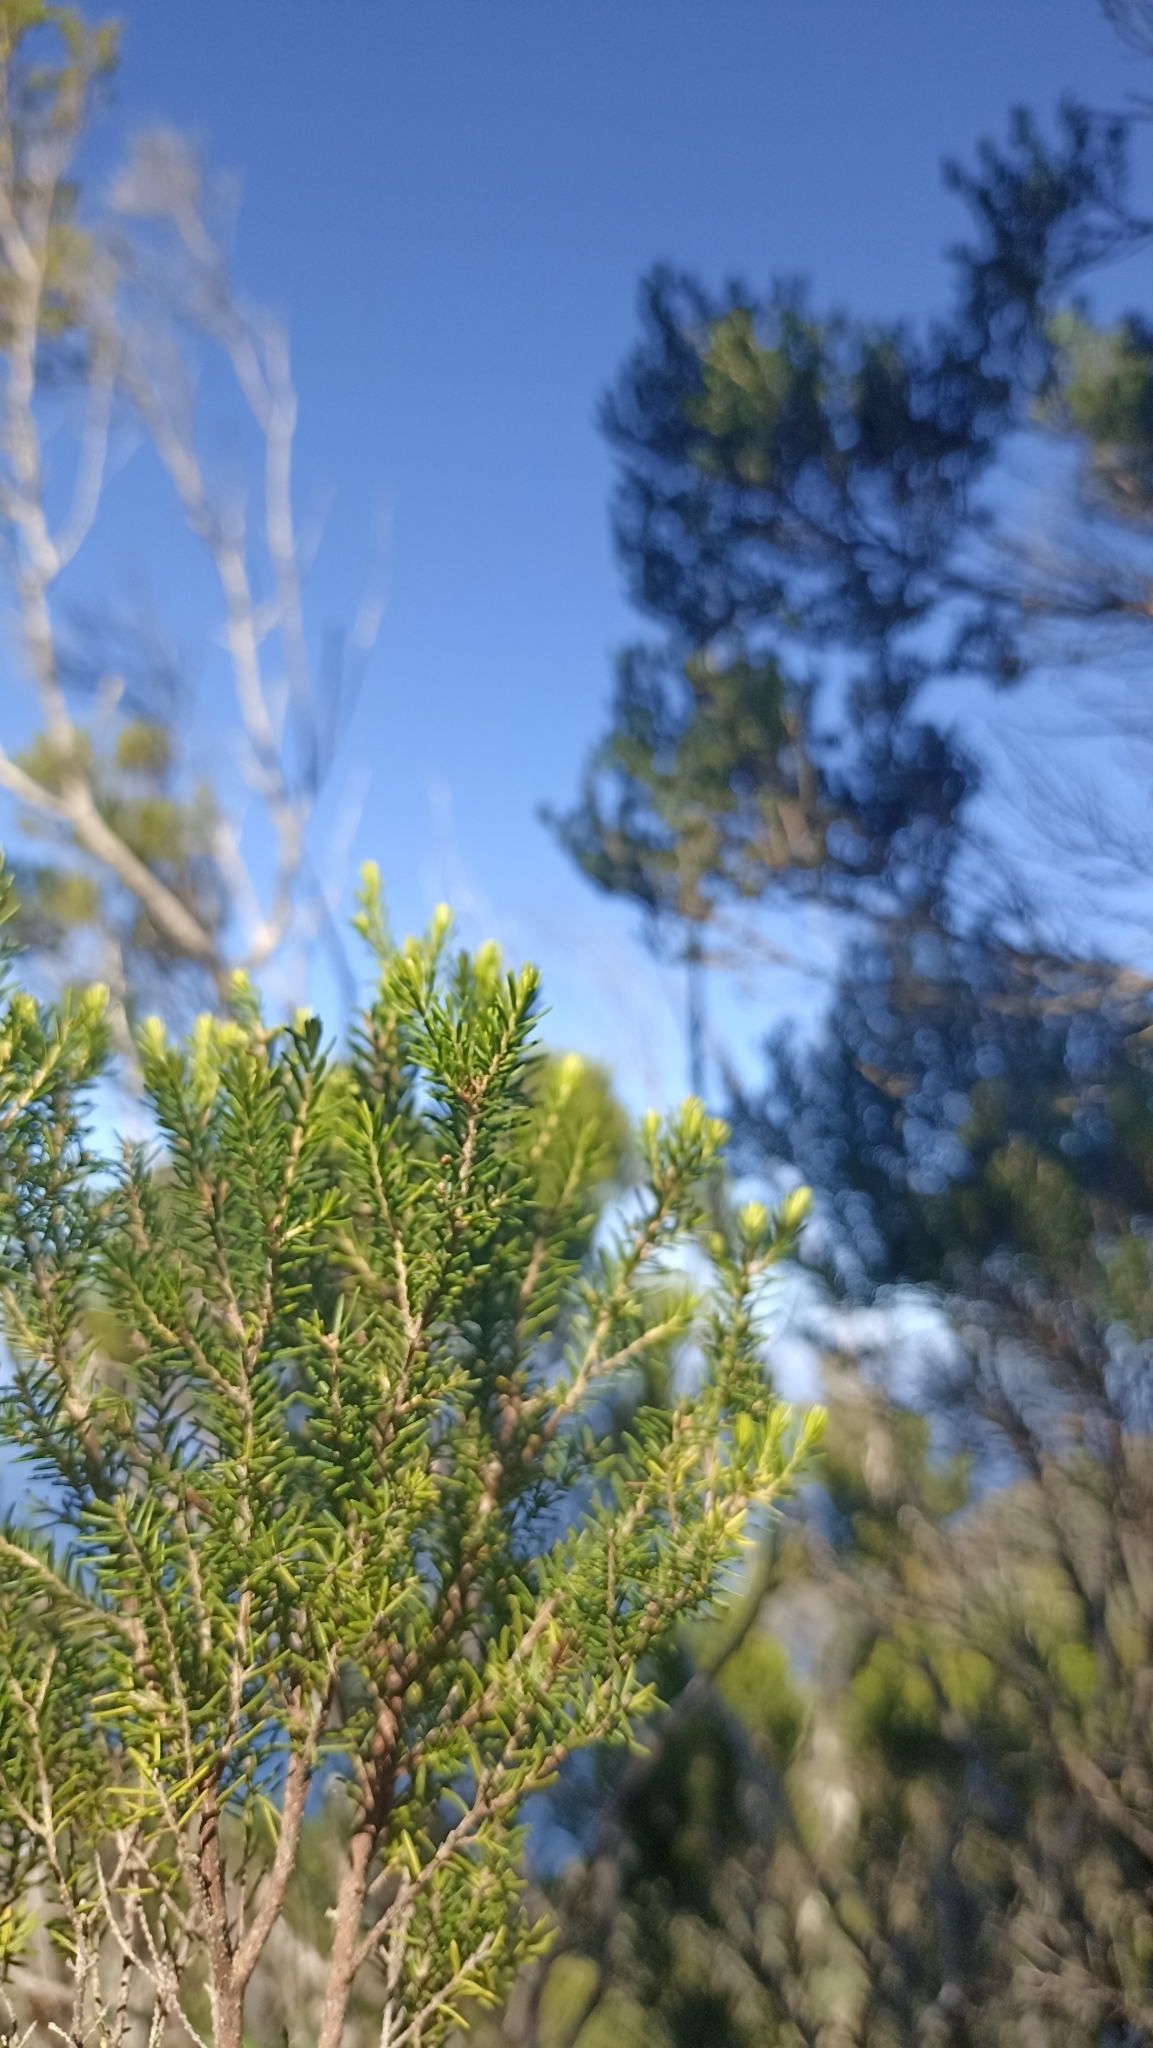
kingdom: Plantae
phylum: Tracheophyta
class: Magnoliopsida
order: Ericales
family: Ericaceae
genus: Erica
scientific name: Erica canariensis
